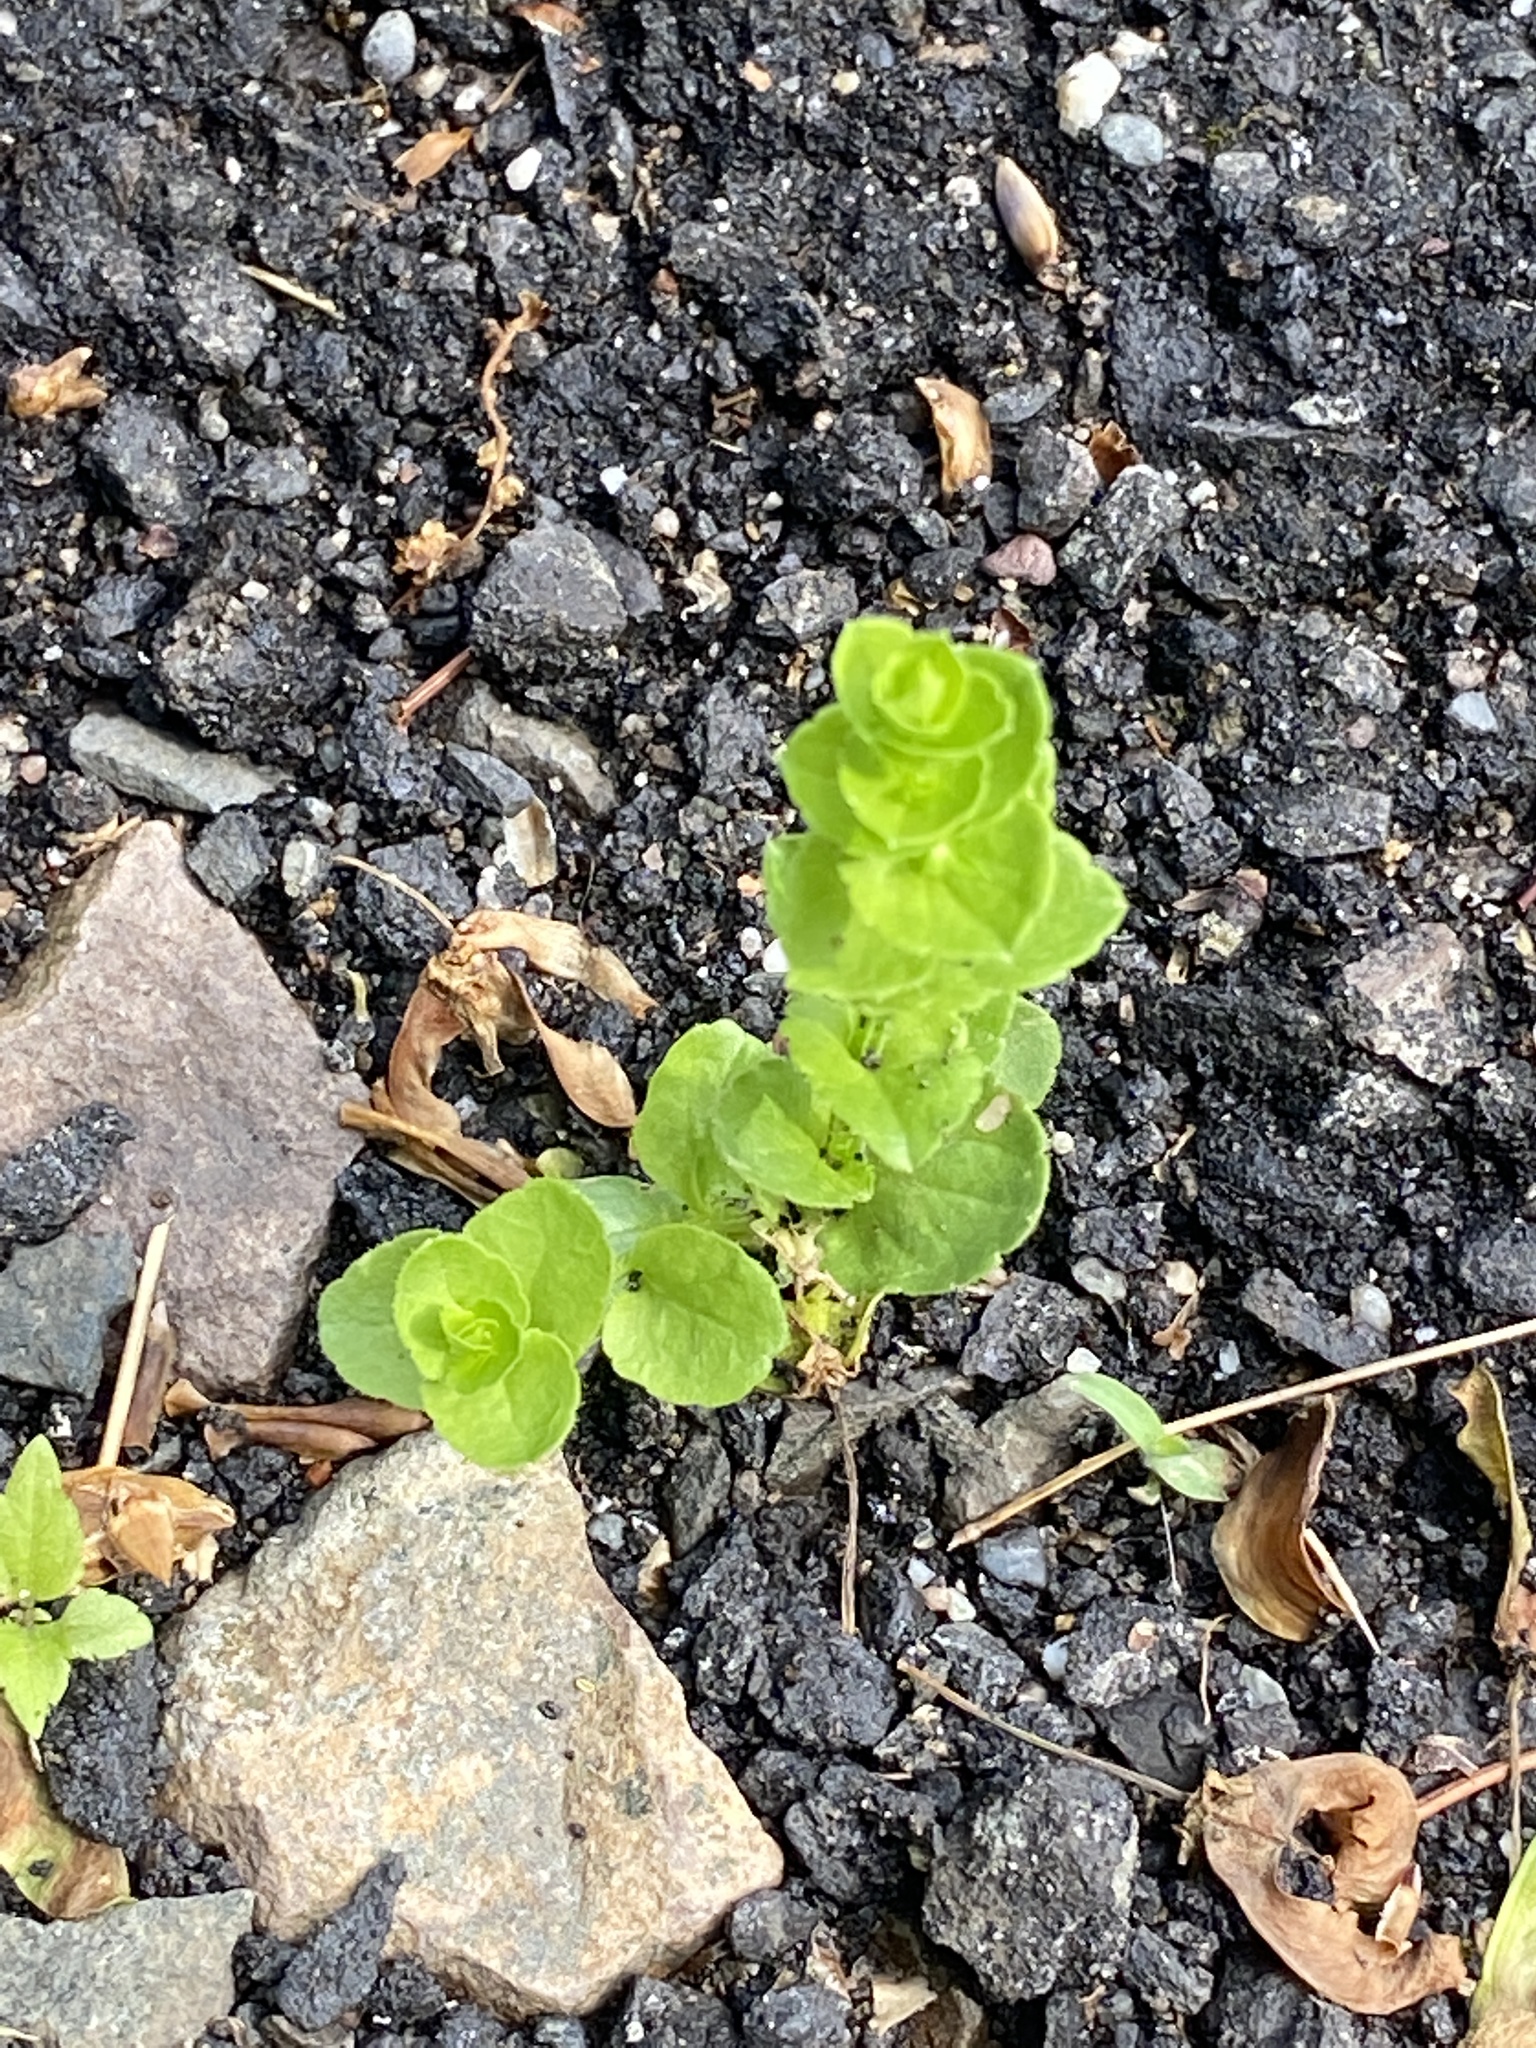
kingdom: Plantae
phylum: Tracheophyta
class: Magnoliopsida
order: Asterales
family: Campanulaceae
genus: Triodanis
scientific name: Triodanis perfoliata
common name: Clasping venus' looking-glass
